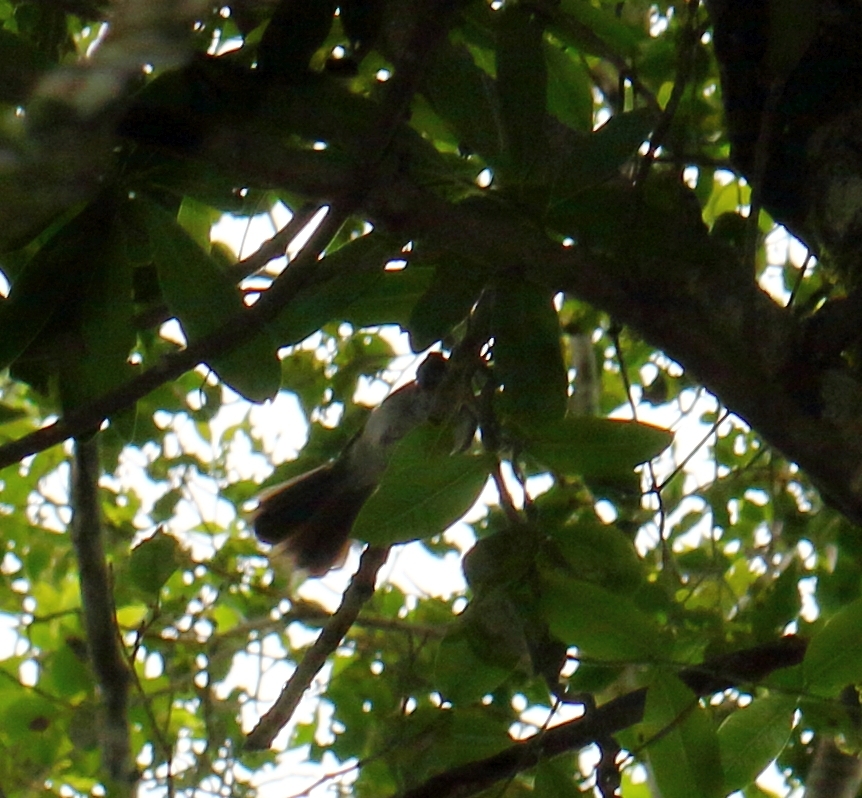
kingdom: Animalia
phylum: Chordata
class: Aves
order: Passeriformes
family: Monarchidae
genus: Trochocercus
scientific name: Trochocercus cyanomelas
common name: Blue-mantled crested flycatcher
